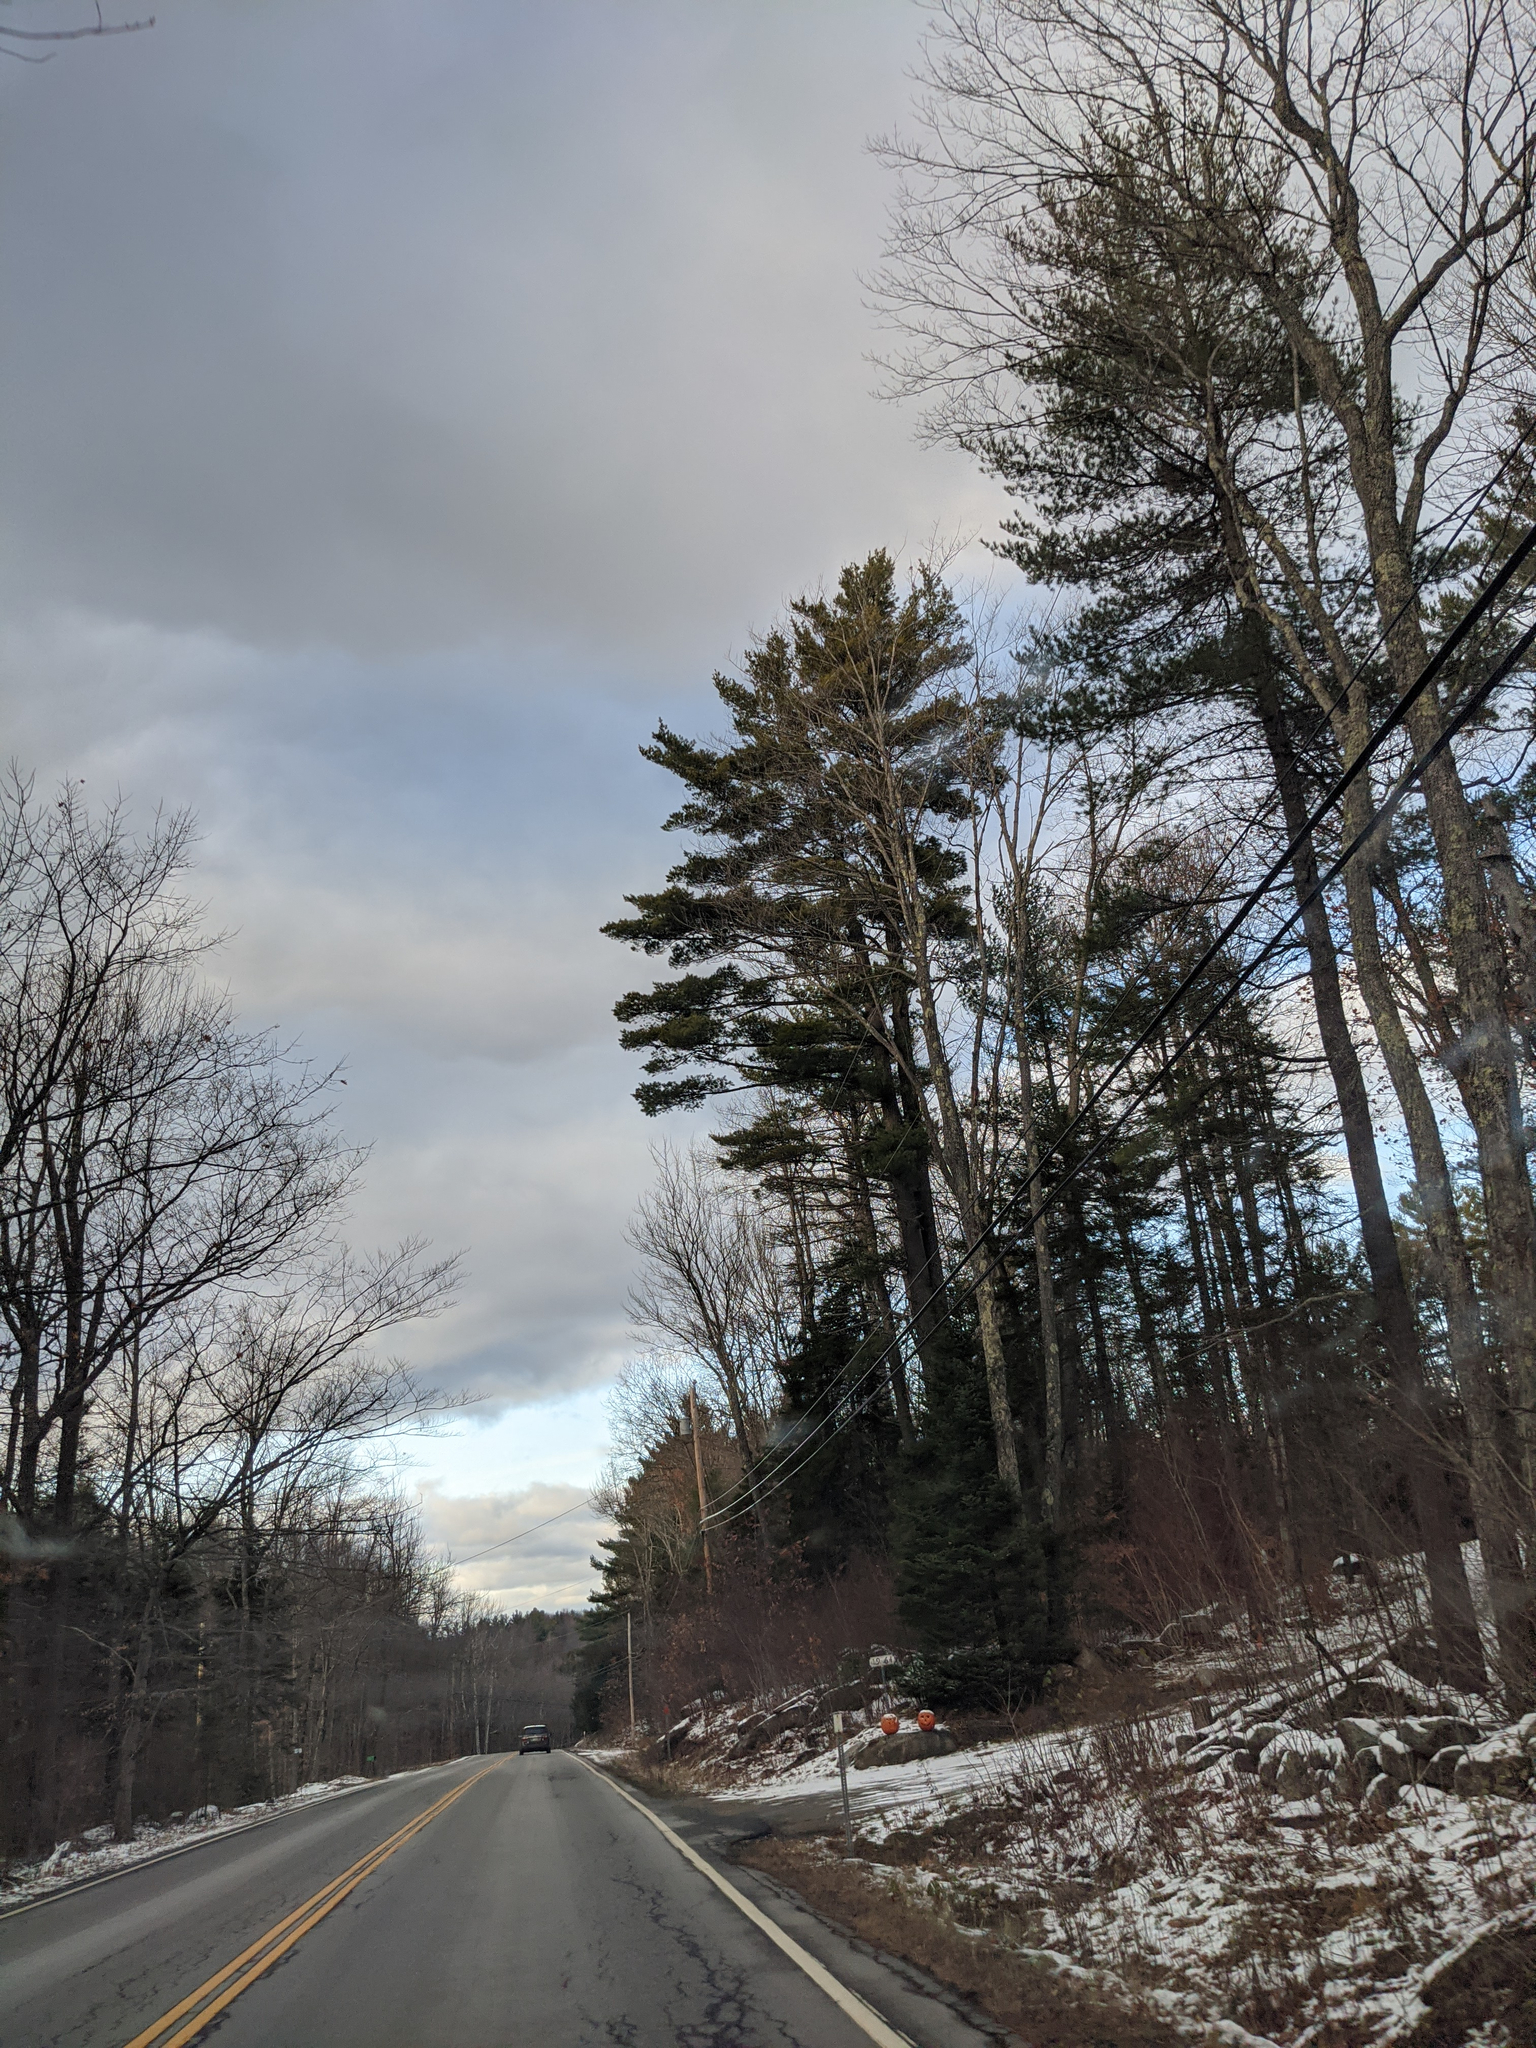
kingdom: Plantae
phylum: Tracheophyta
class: Pinopsida
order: Pinales
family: Pinaceae
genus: Pinus
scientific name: Pinus strobus
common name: Weymouth pine
